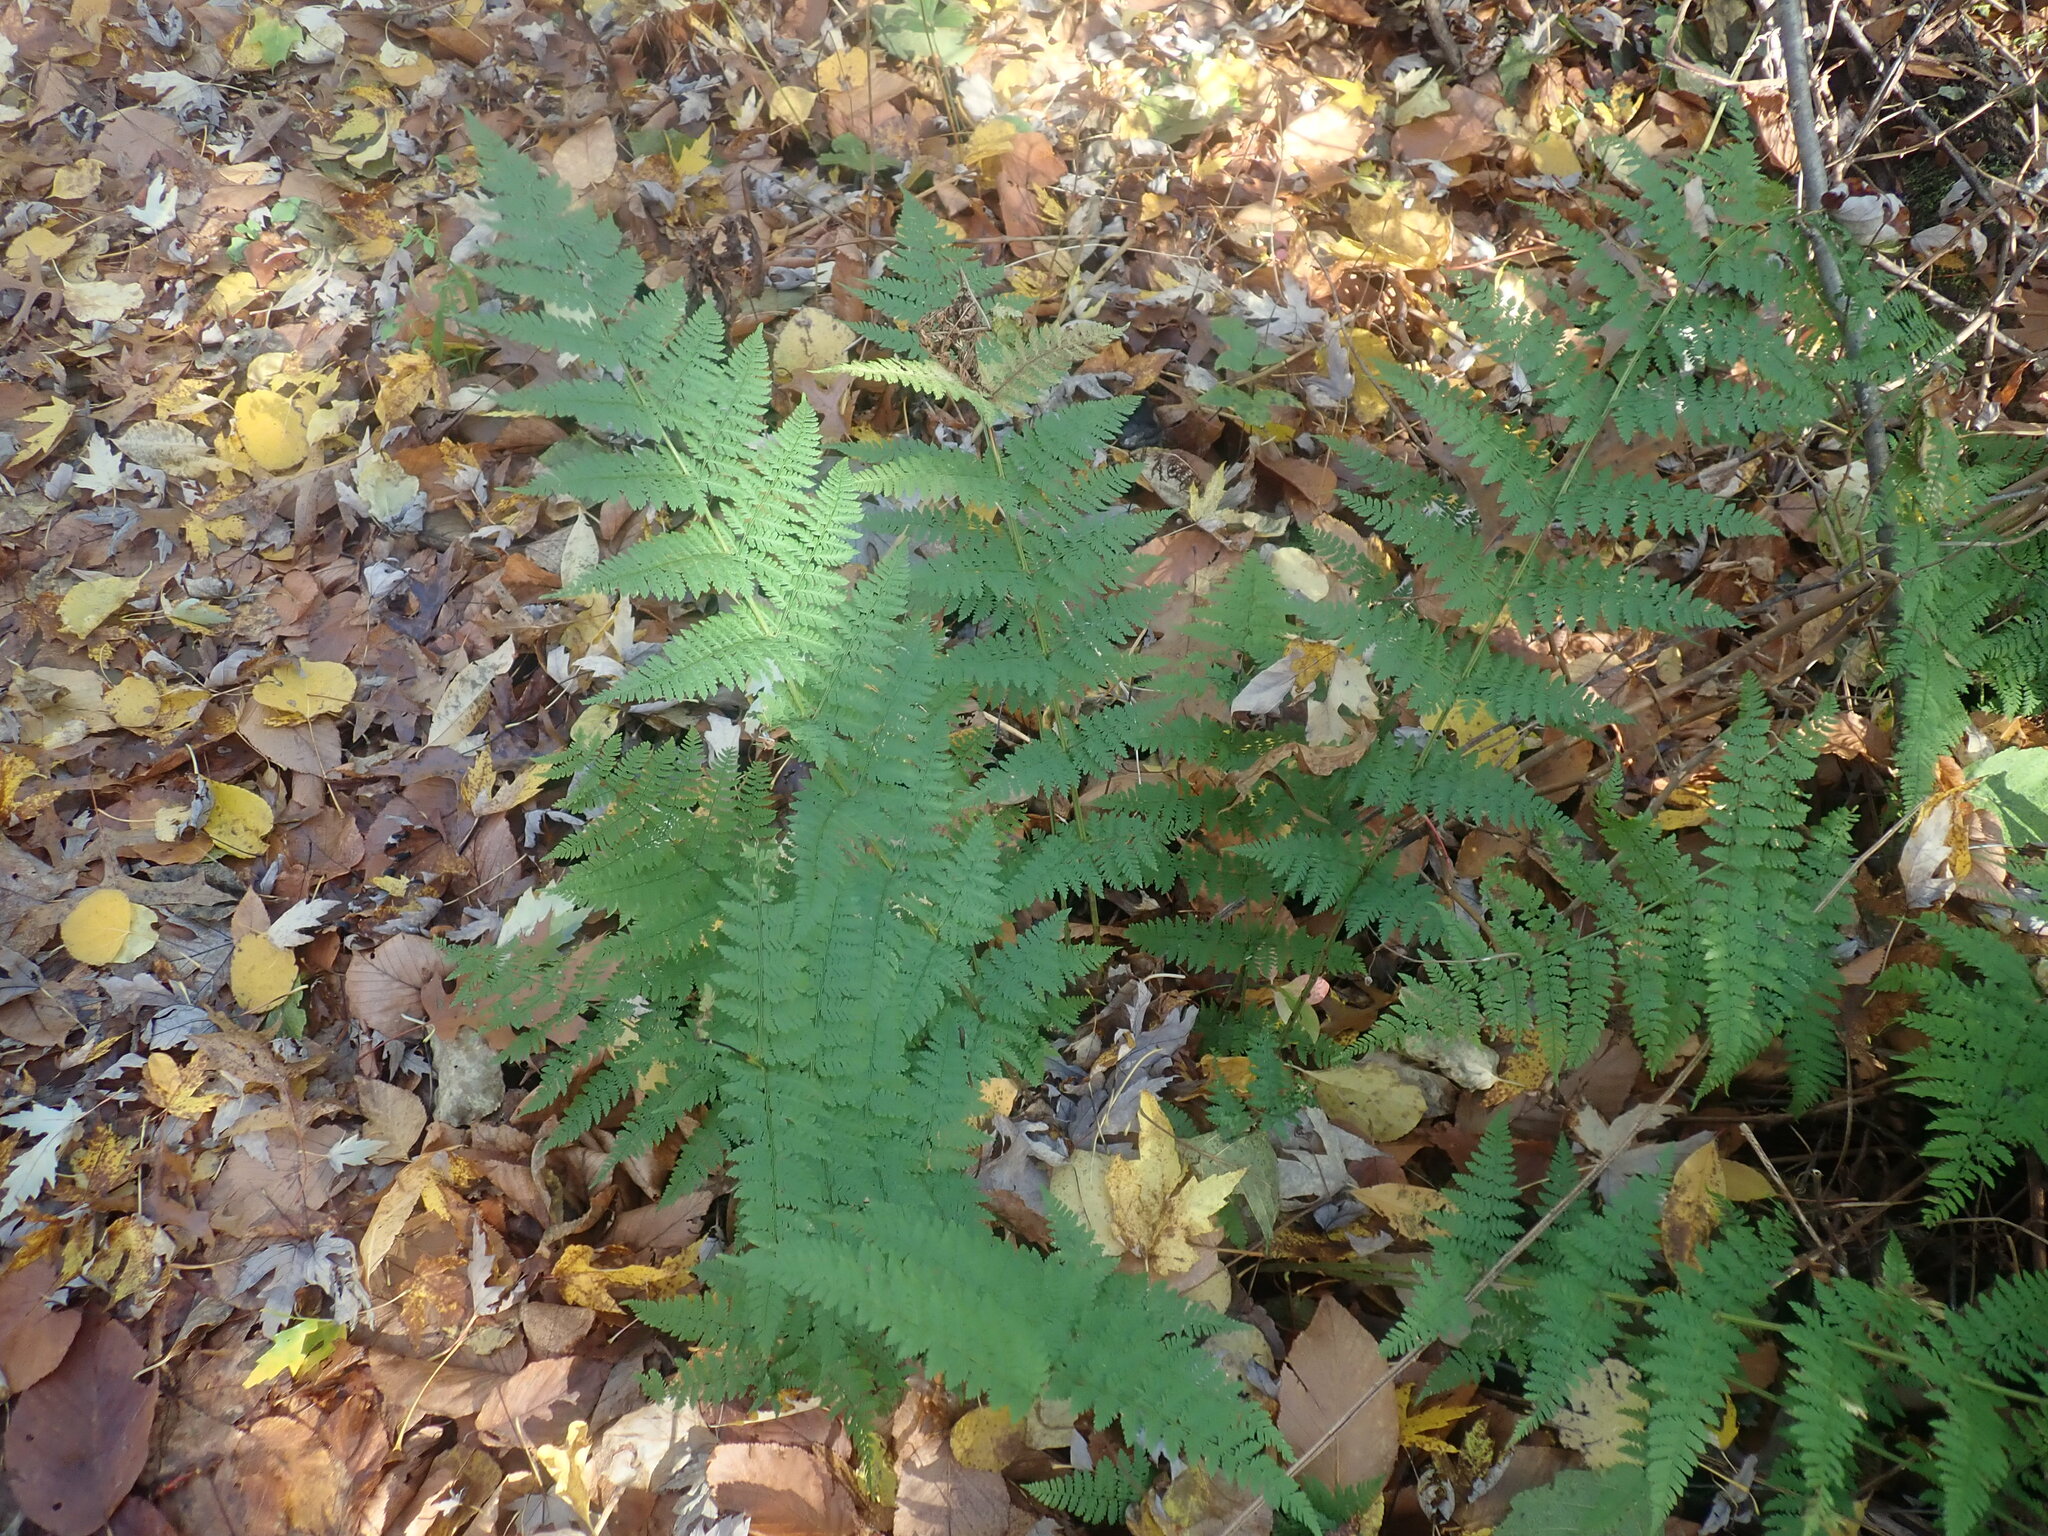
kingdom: Plantae
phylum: Tracheophyta
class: Polypodiopsida
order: Polypodiales
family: Dryopteridaceae
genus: Dryopteris
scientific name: Dryopteris intermedia
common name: Evergreen wood fern
